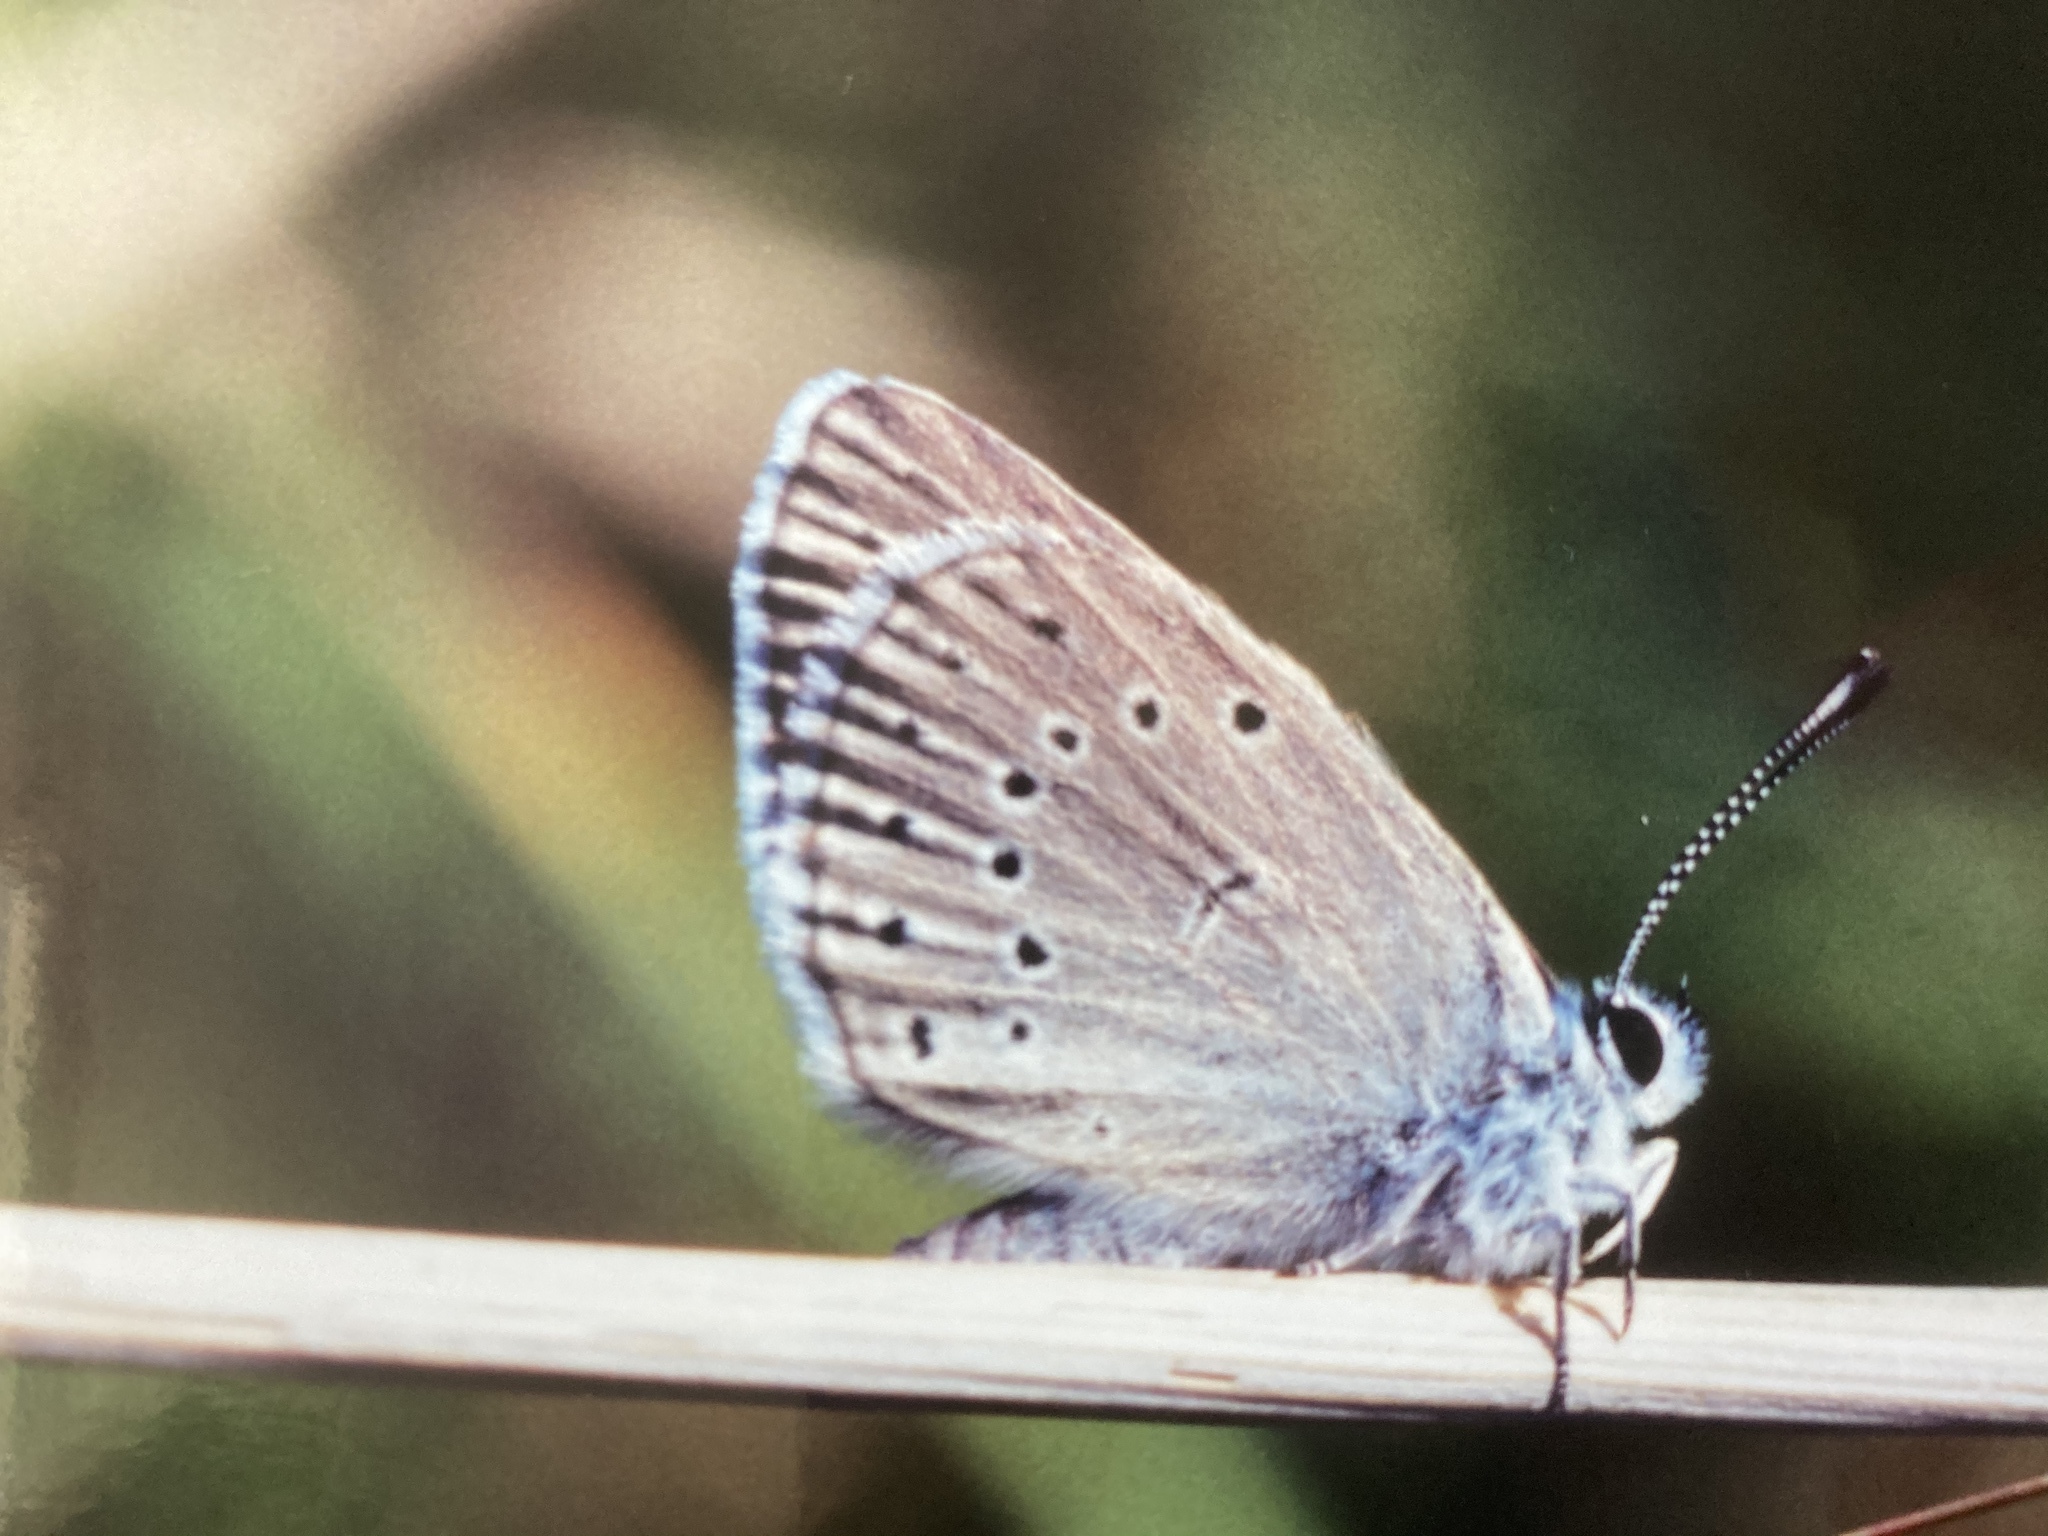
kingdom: Animalia
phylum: Arthropoda
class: Insecta
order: Lepidoptera
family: Lycaenidae
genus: Phengaris
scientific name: Phengaris teleius
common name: Scarce large blue
